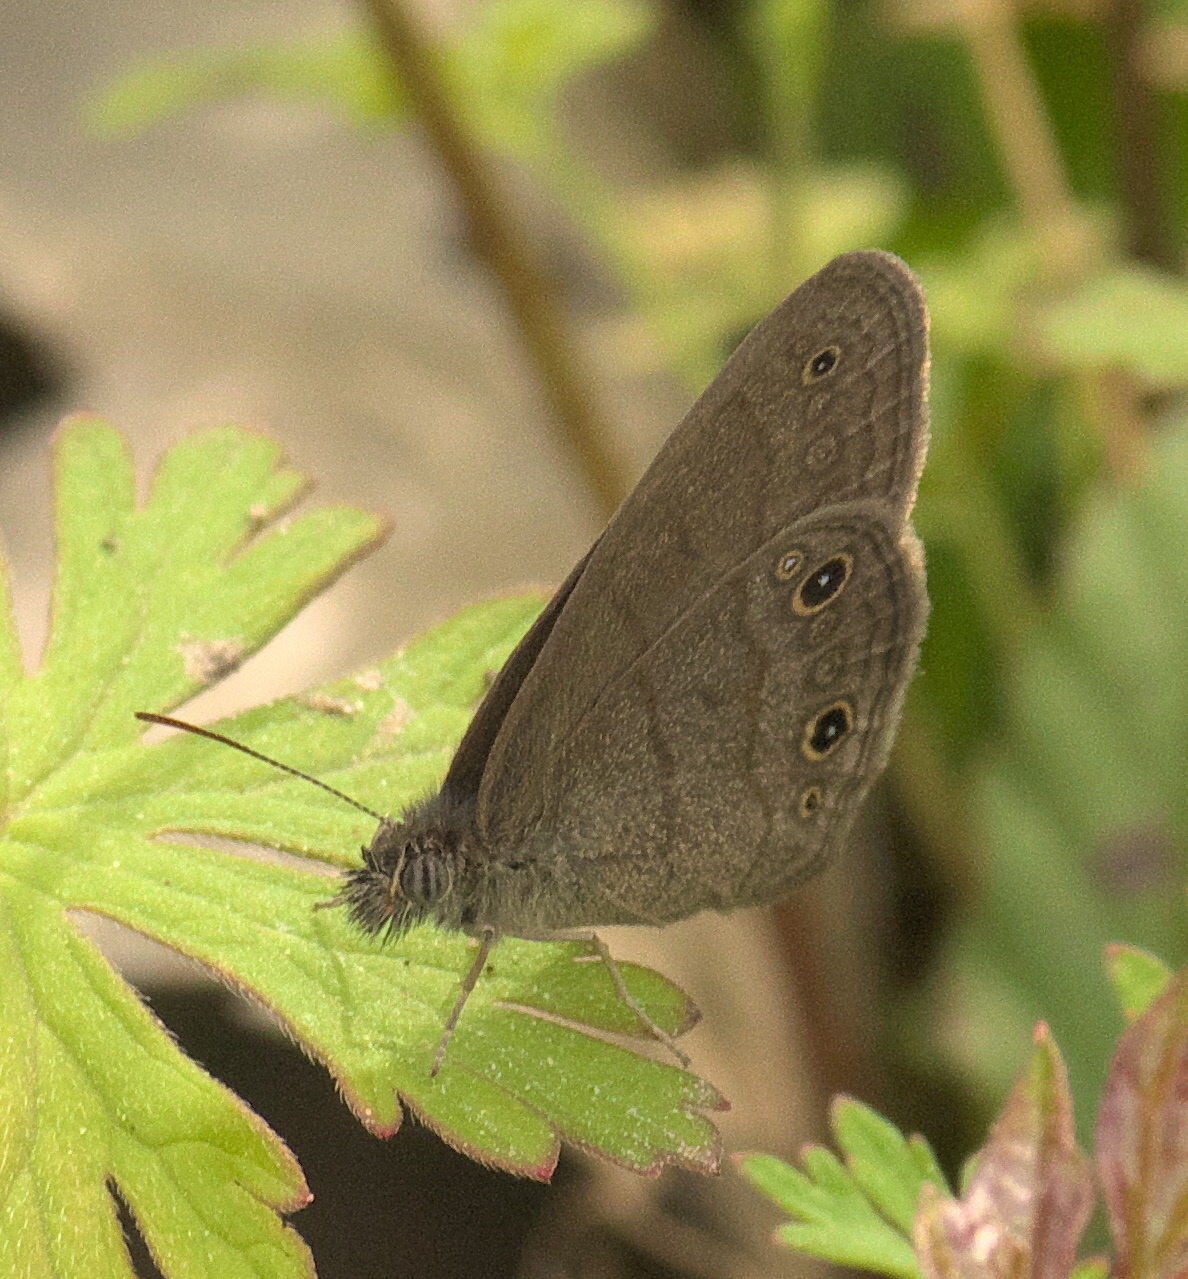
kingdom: Animalia
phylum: Arthropoda
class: Insecta
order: Lepidoptera
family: Nymphalidae
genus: Hermeuptychia
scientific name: Hermeuptychia hermes
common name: Hermes satyr
